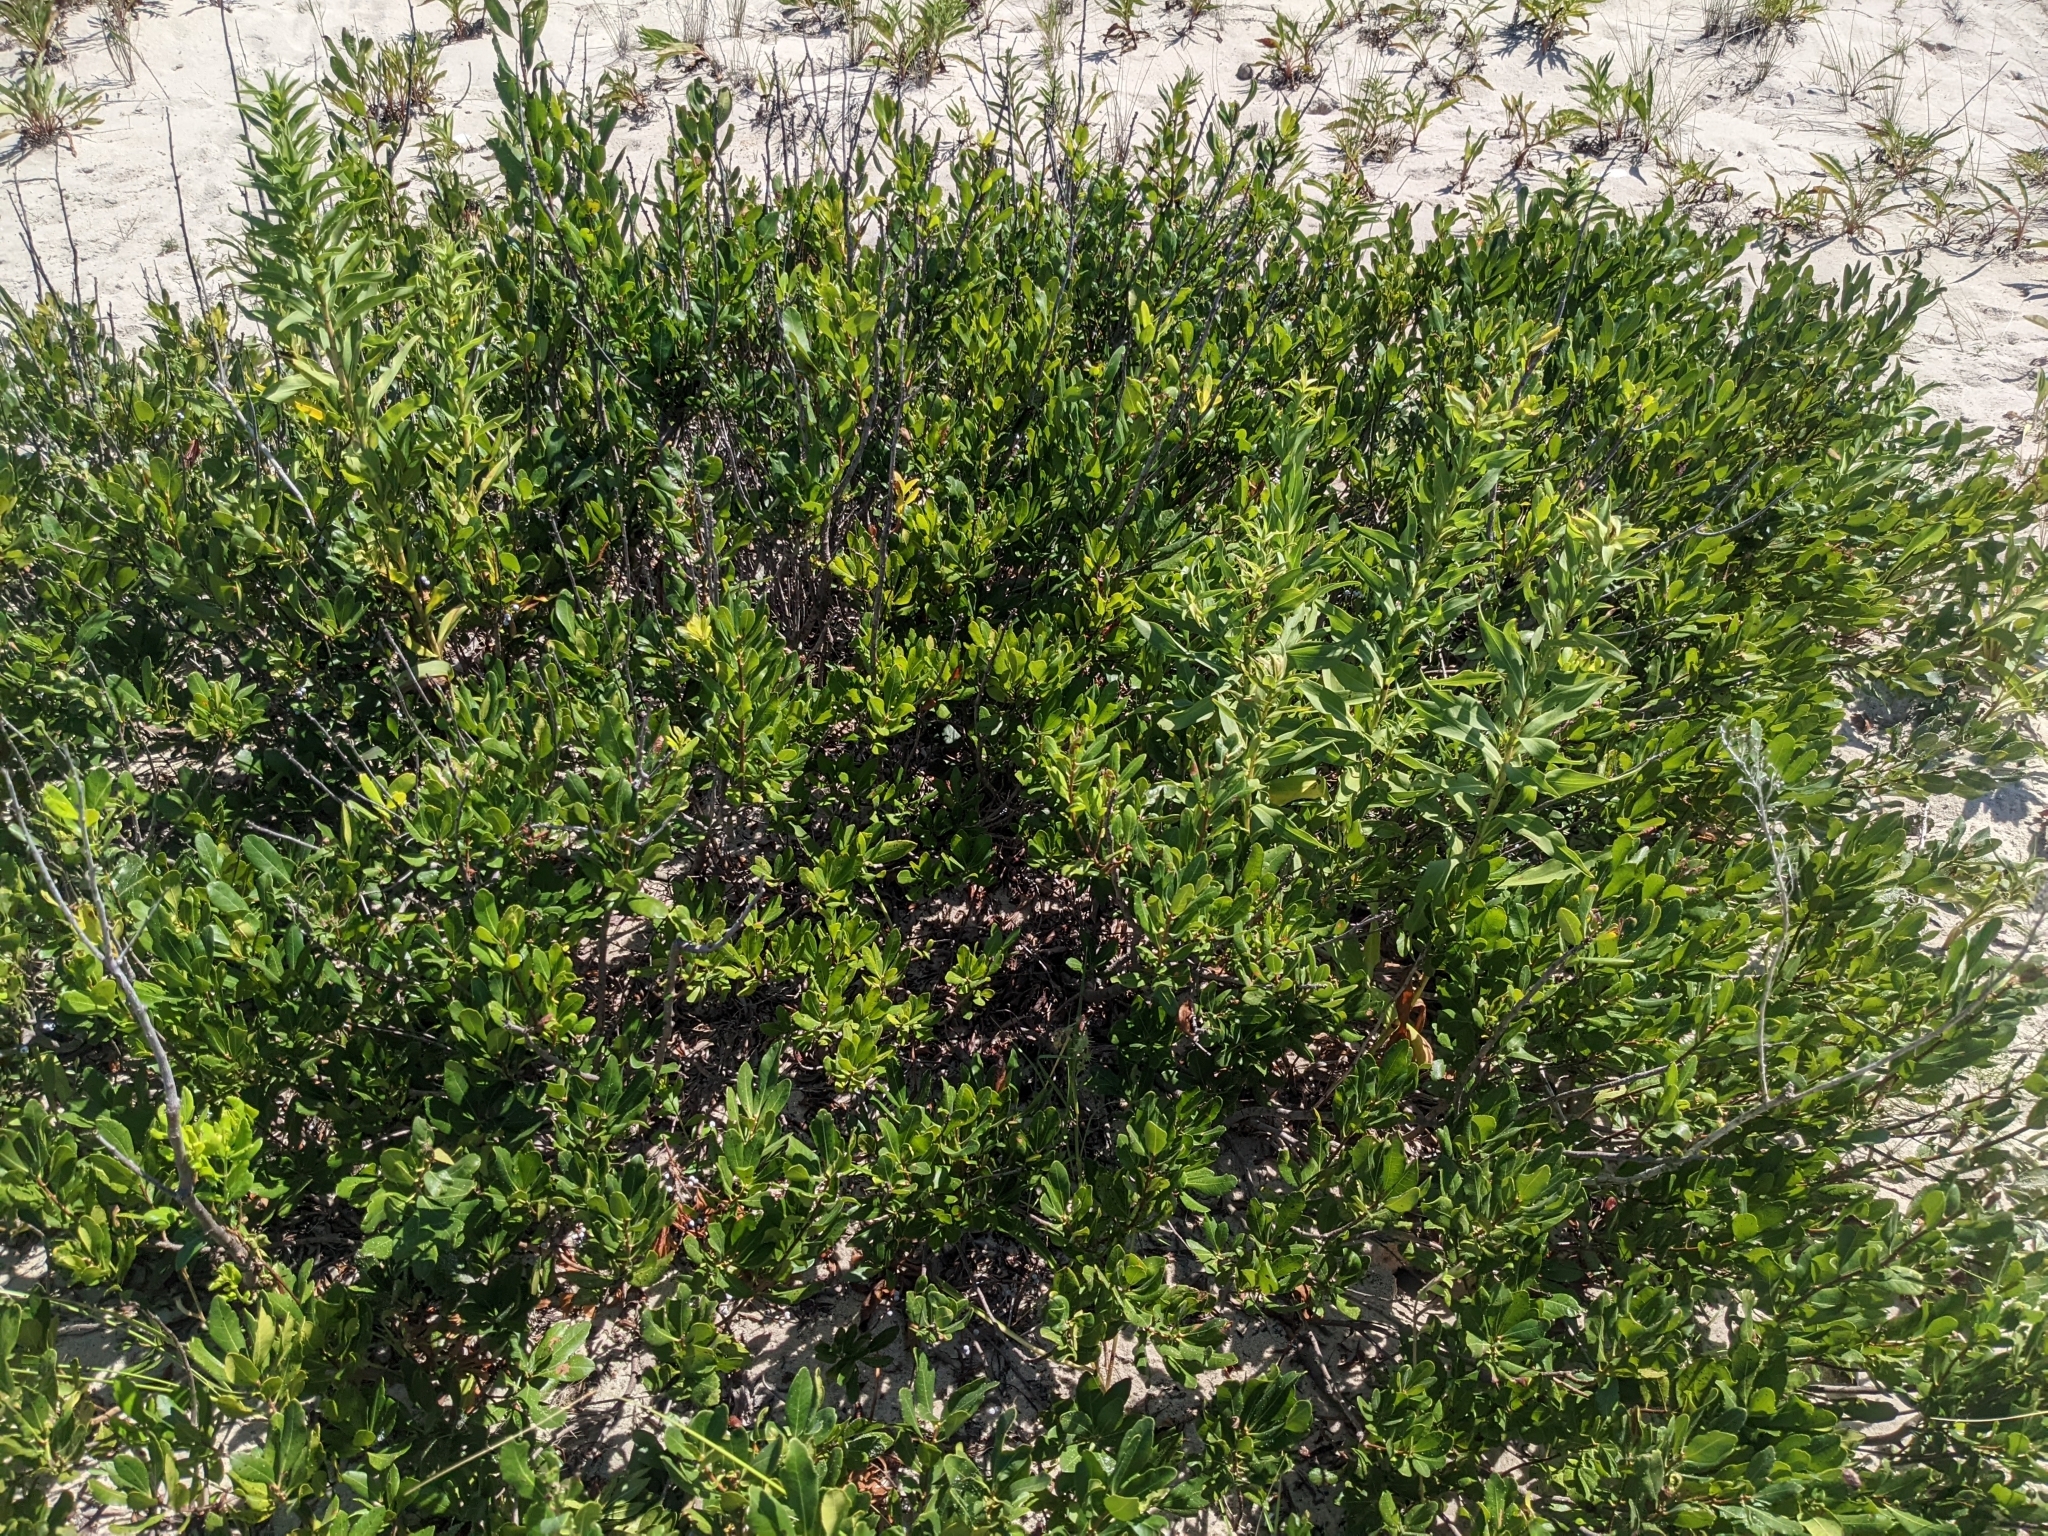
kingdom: Plantae
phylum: Tracheophyta
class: Magnoliopsida
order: Fagales
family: Myricaceae
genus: Morella
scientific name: Morella pensylvanica
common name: Northern bayberry
